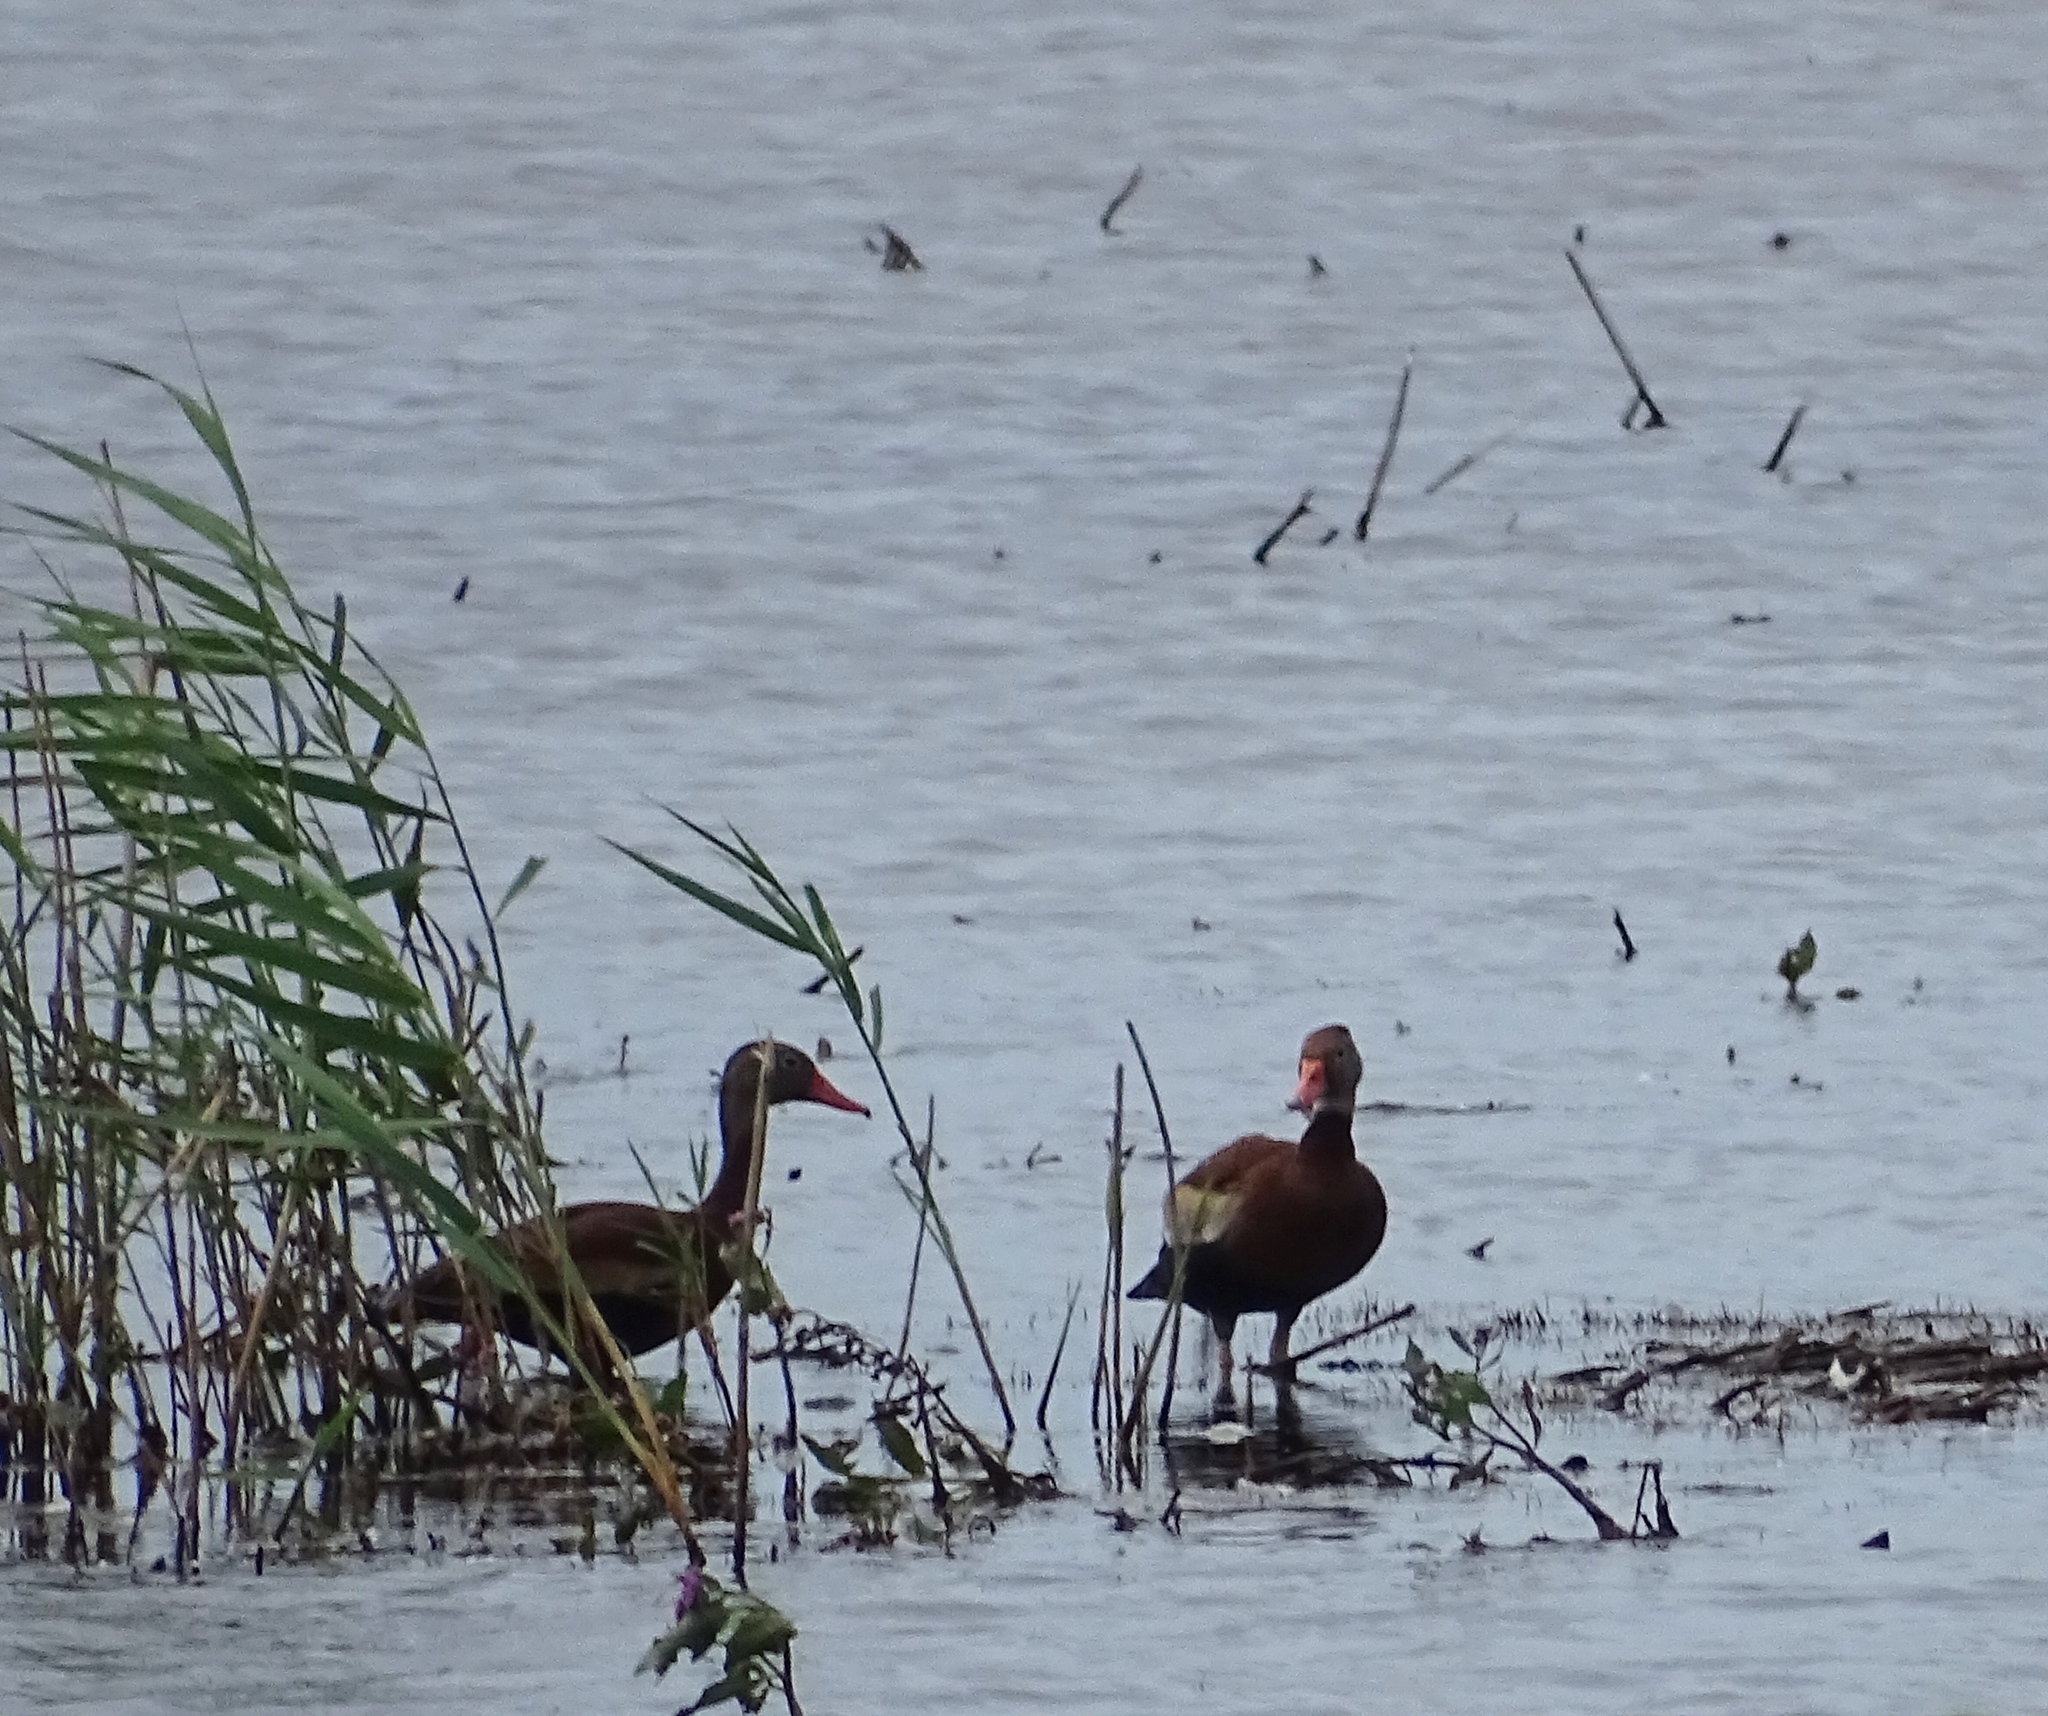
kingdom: Animalia
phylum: Chordata
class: Aves
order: Anseriformes
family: Anatidae
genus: Dendrocygna
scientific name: Dendrocygna autumnalis
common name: Black-bellied whistling duck
